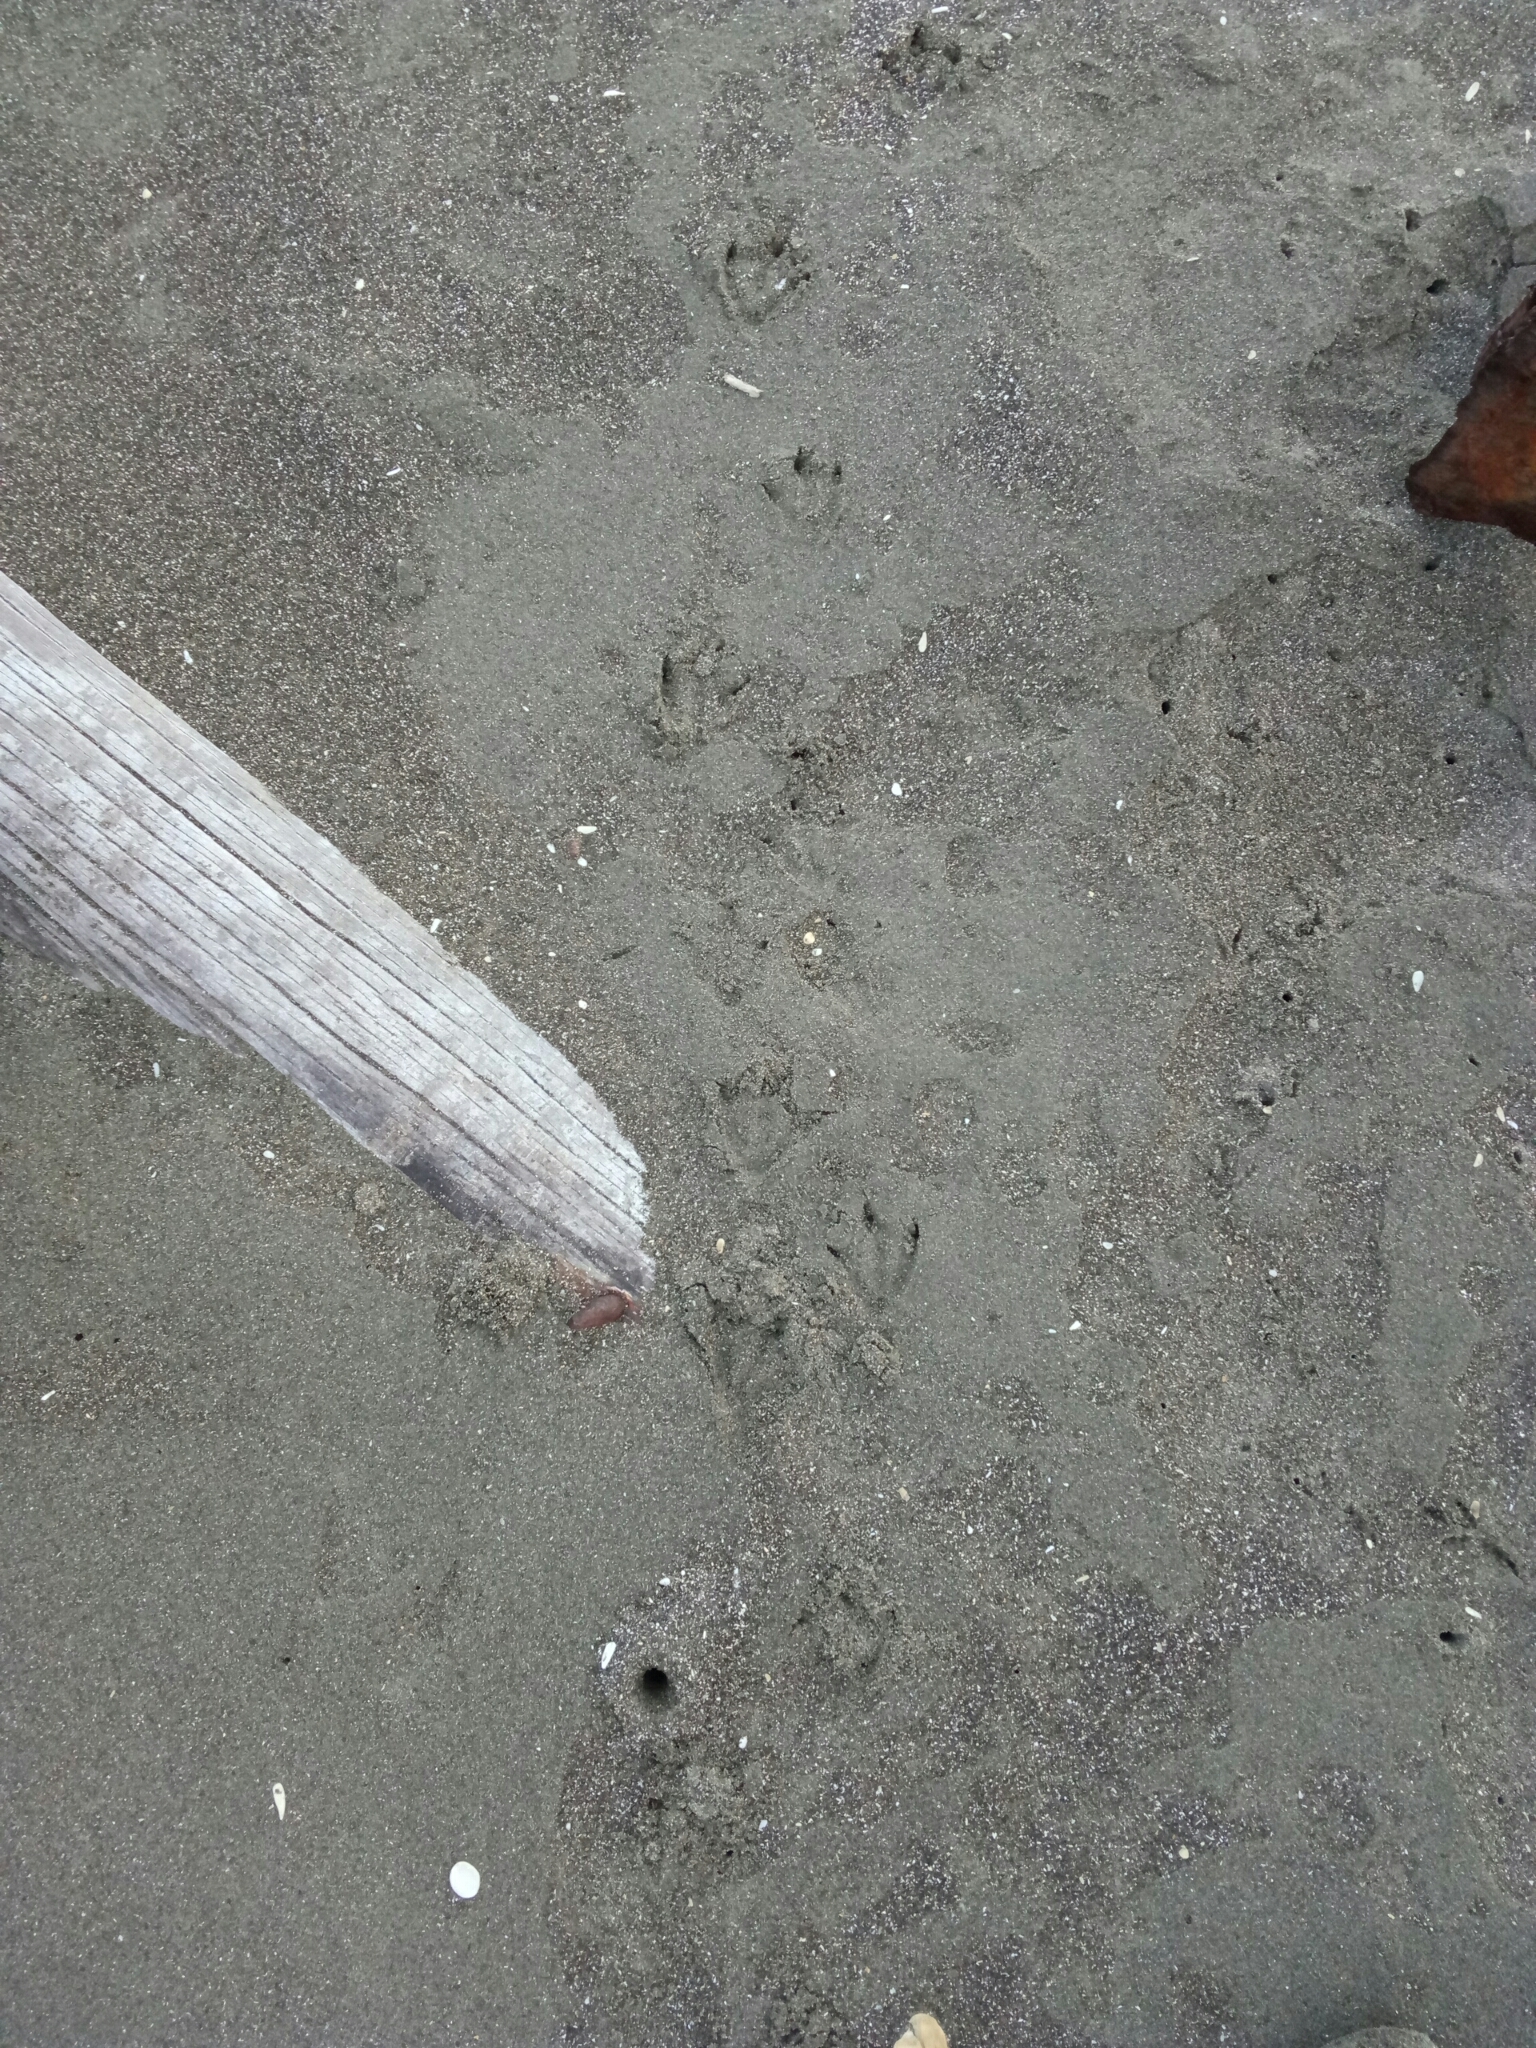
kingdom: Animalia
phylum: Chordata
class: Aves
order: Sphenisciformes
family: Spheniscidae
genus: Eudyptula
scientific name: Eudyptula minor
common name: Little penguin
